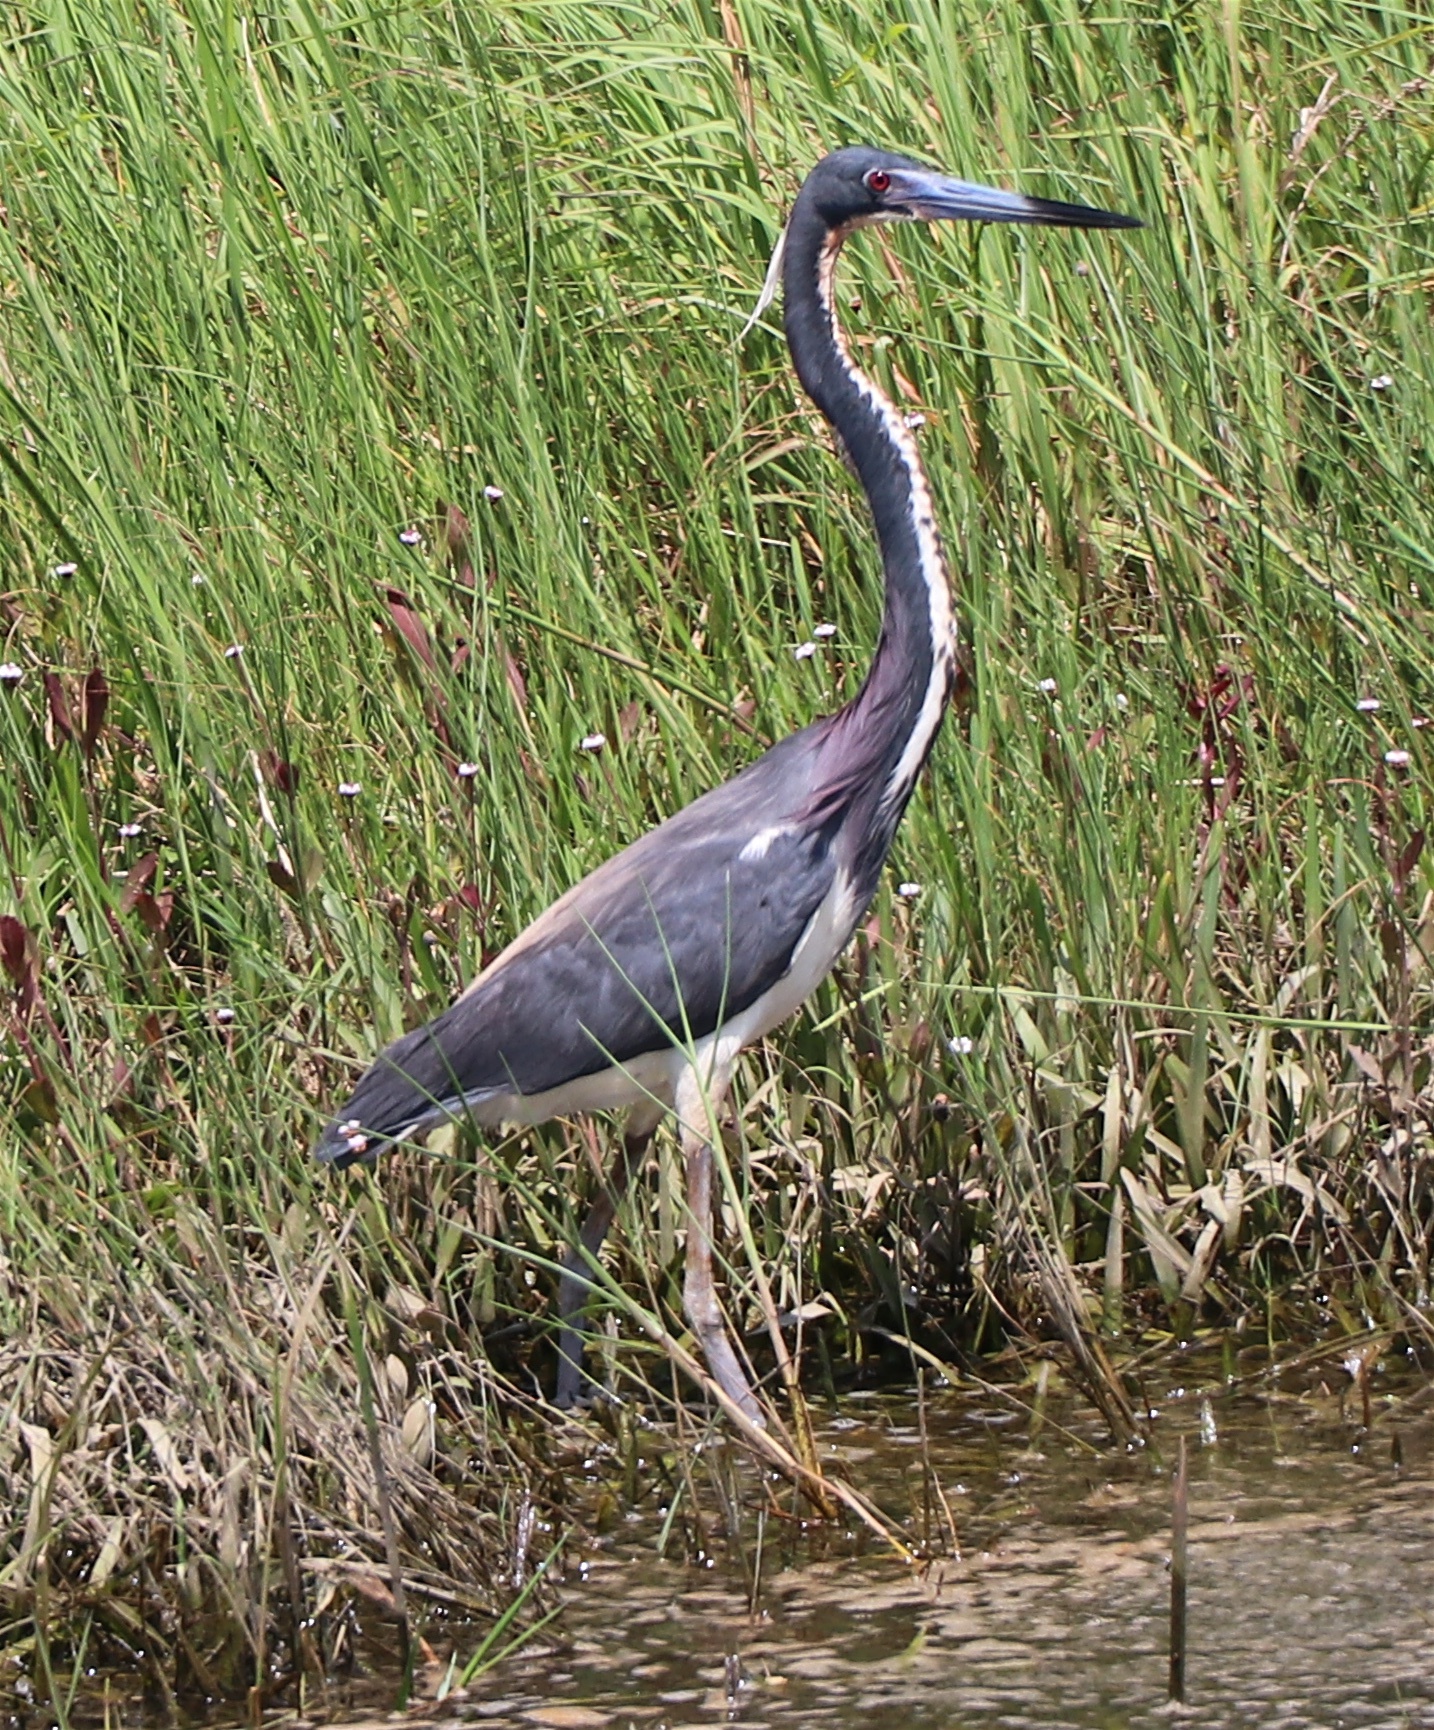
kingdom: Animalia
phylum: Chordata
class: Aves
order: Pelecaniformes
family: Ardeidae
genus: Egretta
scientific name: Egretta tricolor
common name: Tricolored heron
